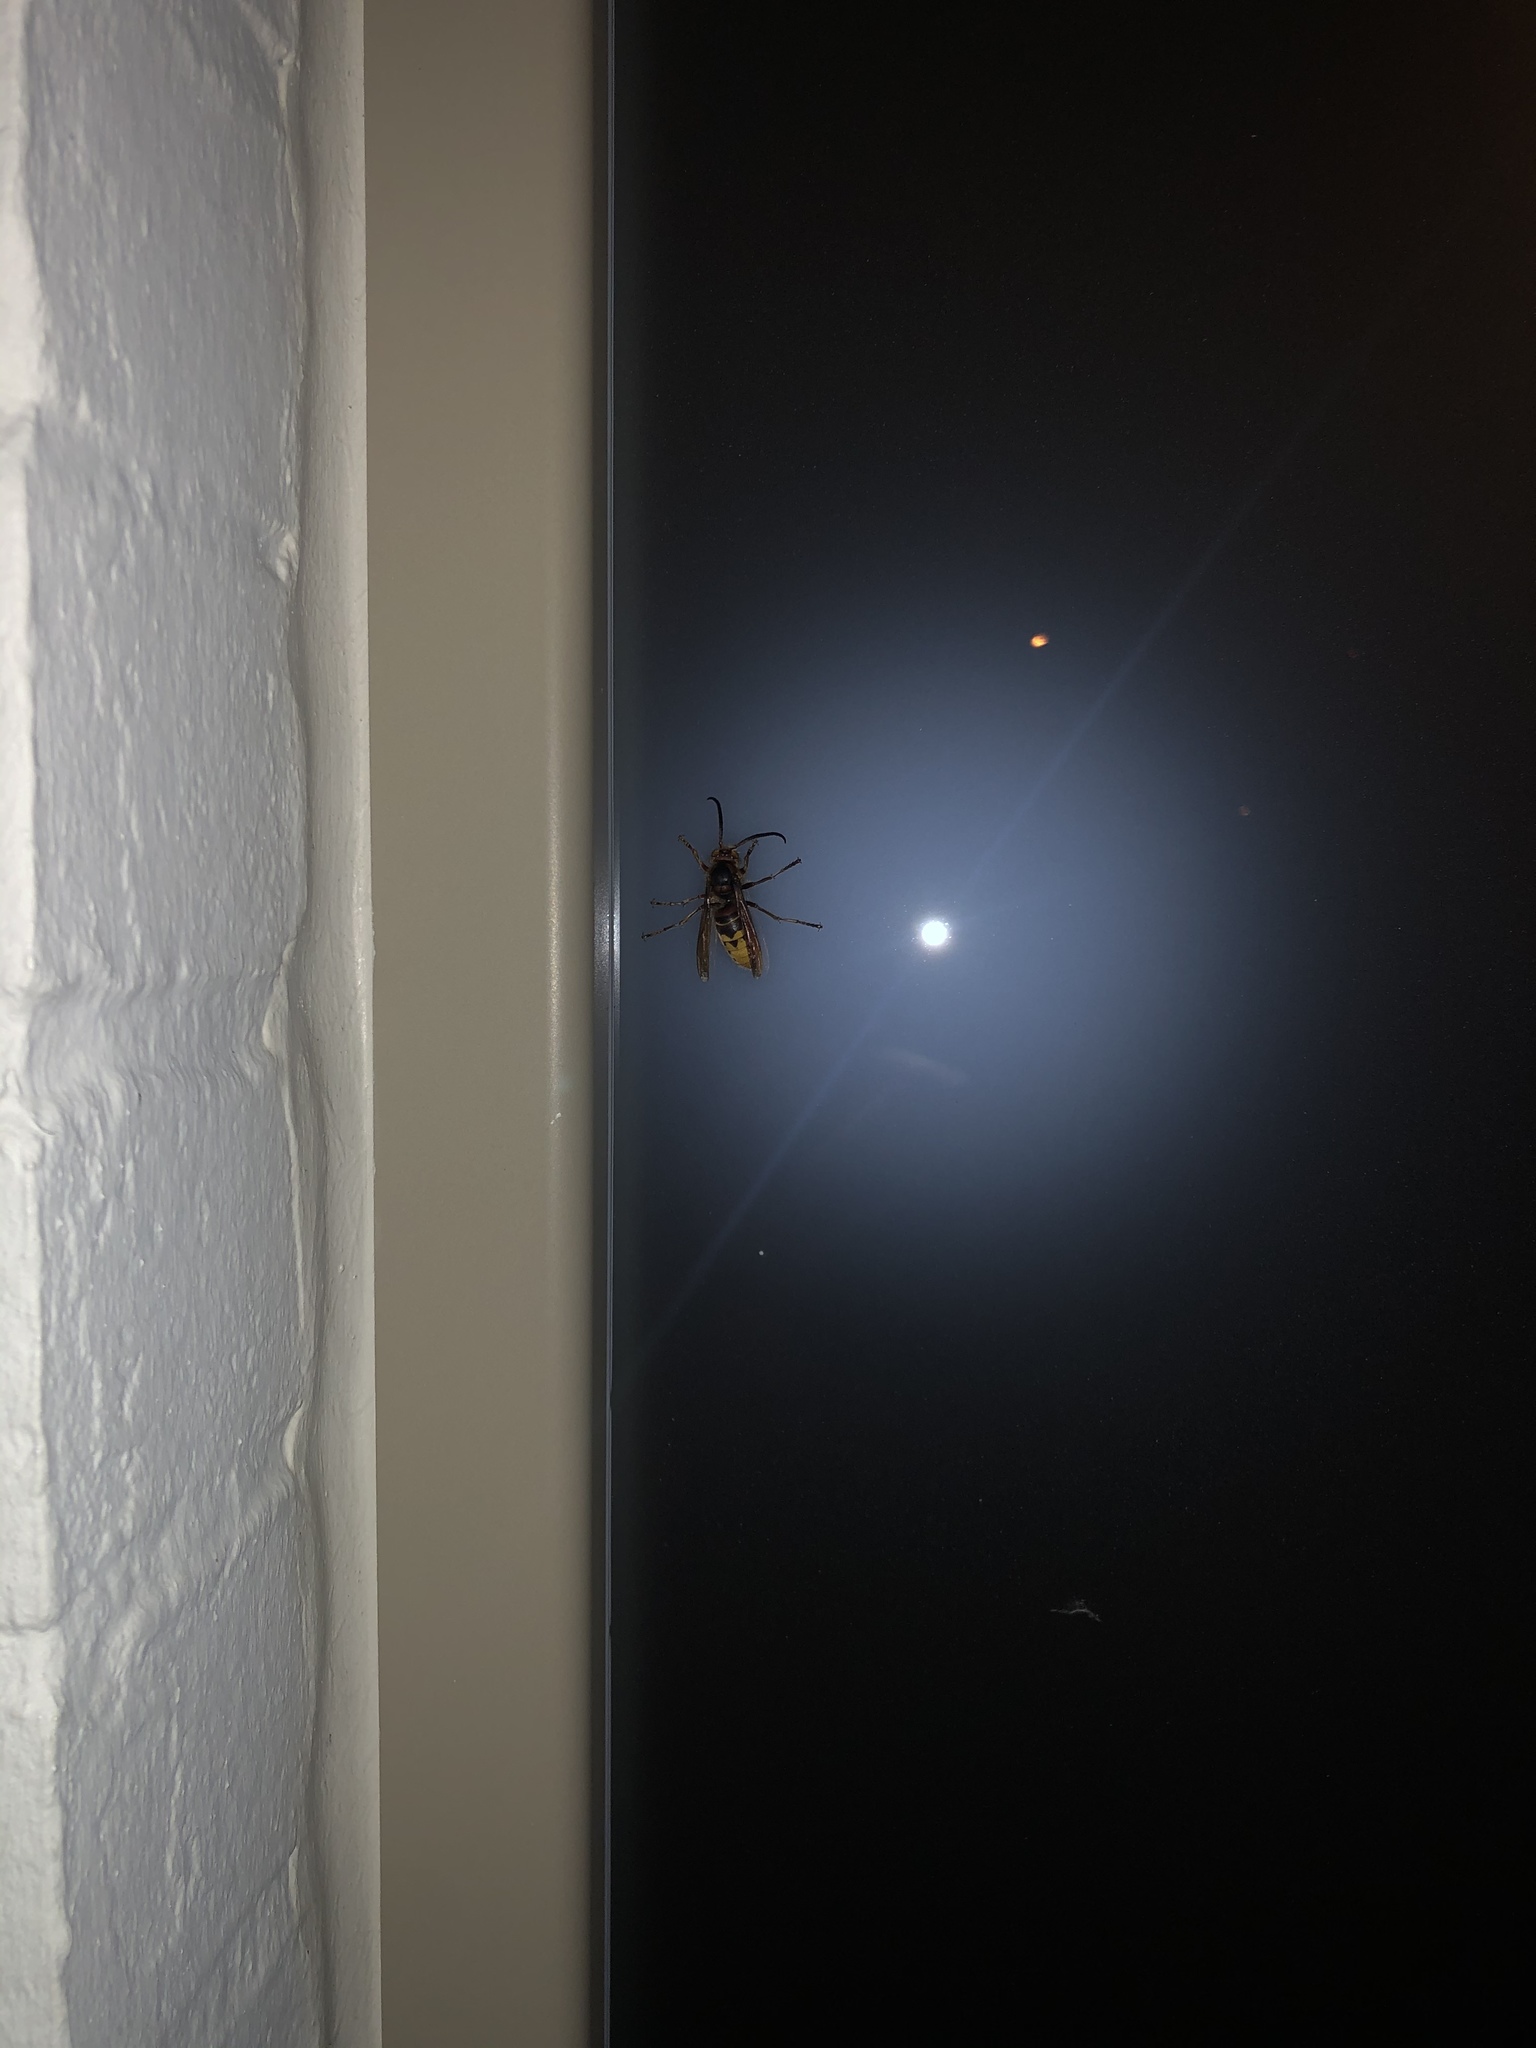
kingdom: Animalia
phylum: Arthropoda
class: Insecta
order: Hymenoptera
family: Vespidae
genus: Vespa
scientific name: Vespa crabro
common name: Hornet
